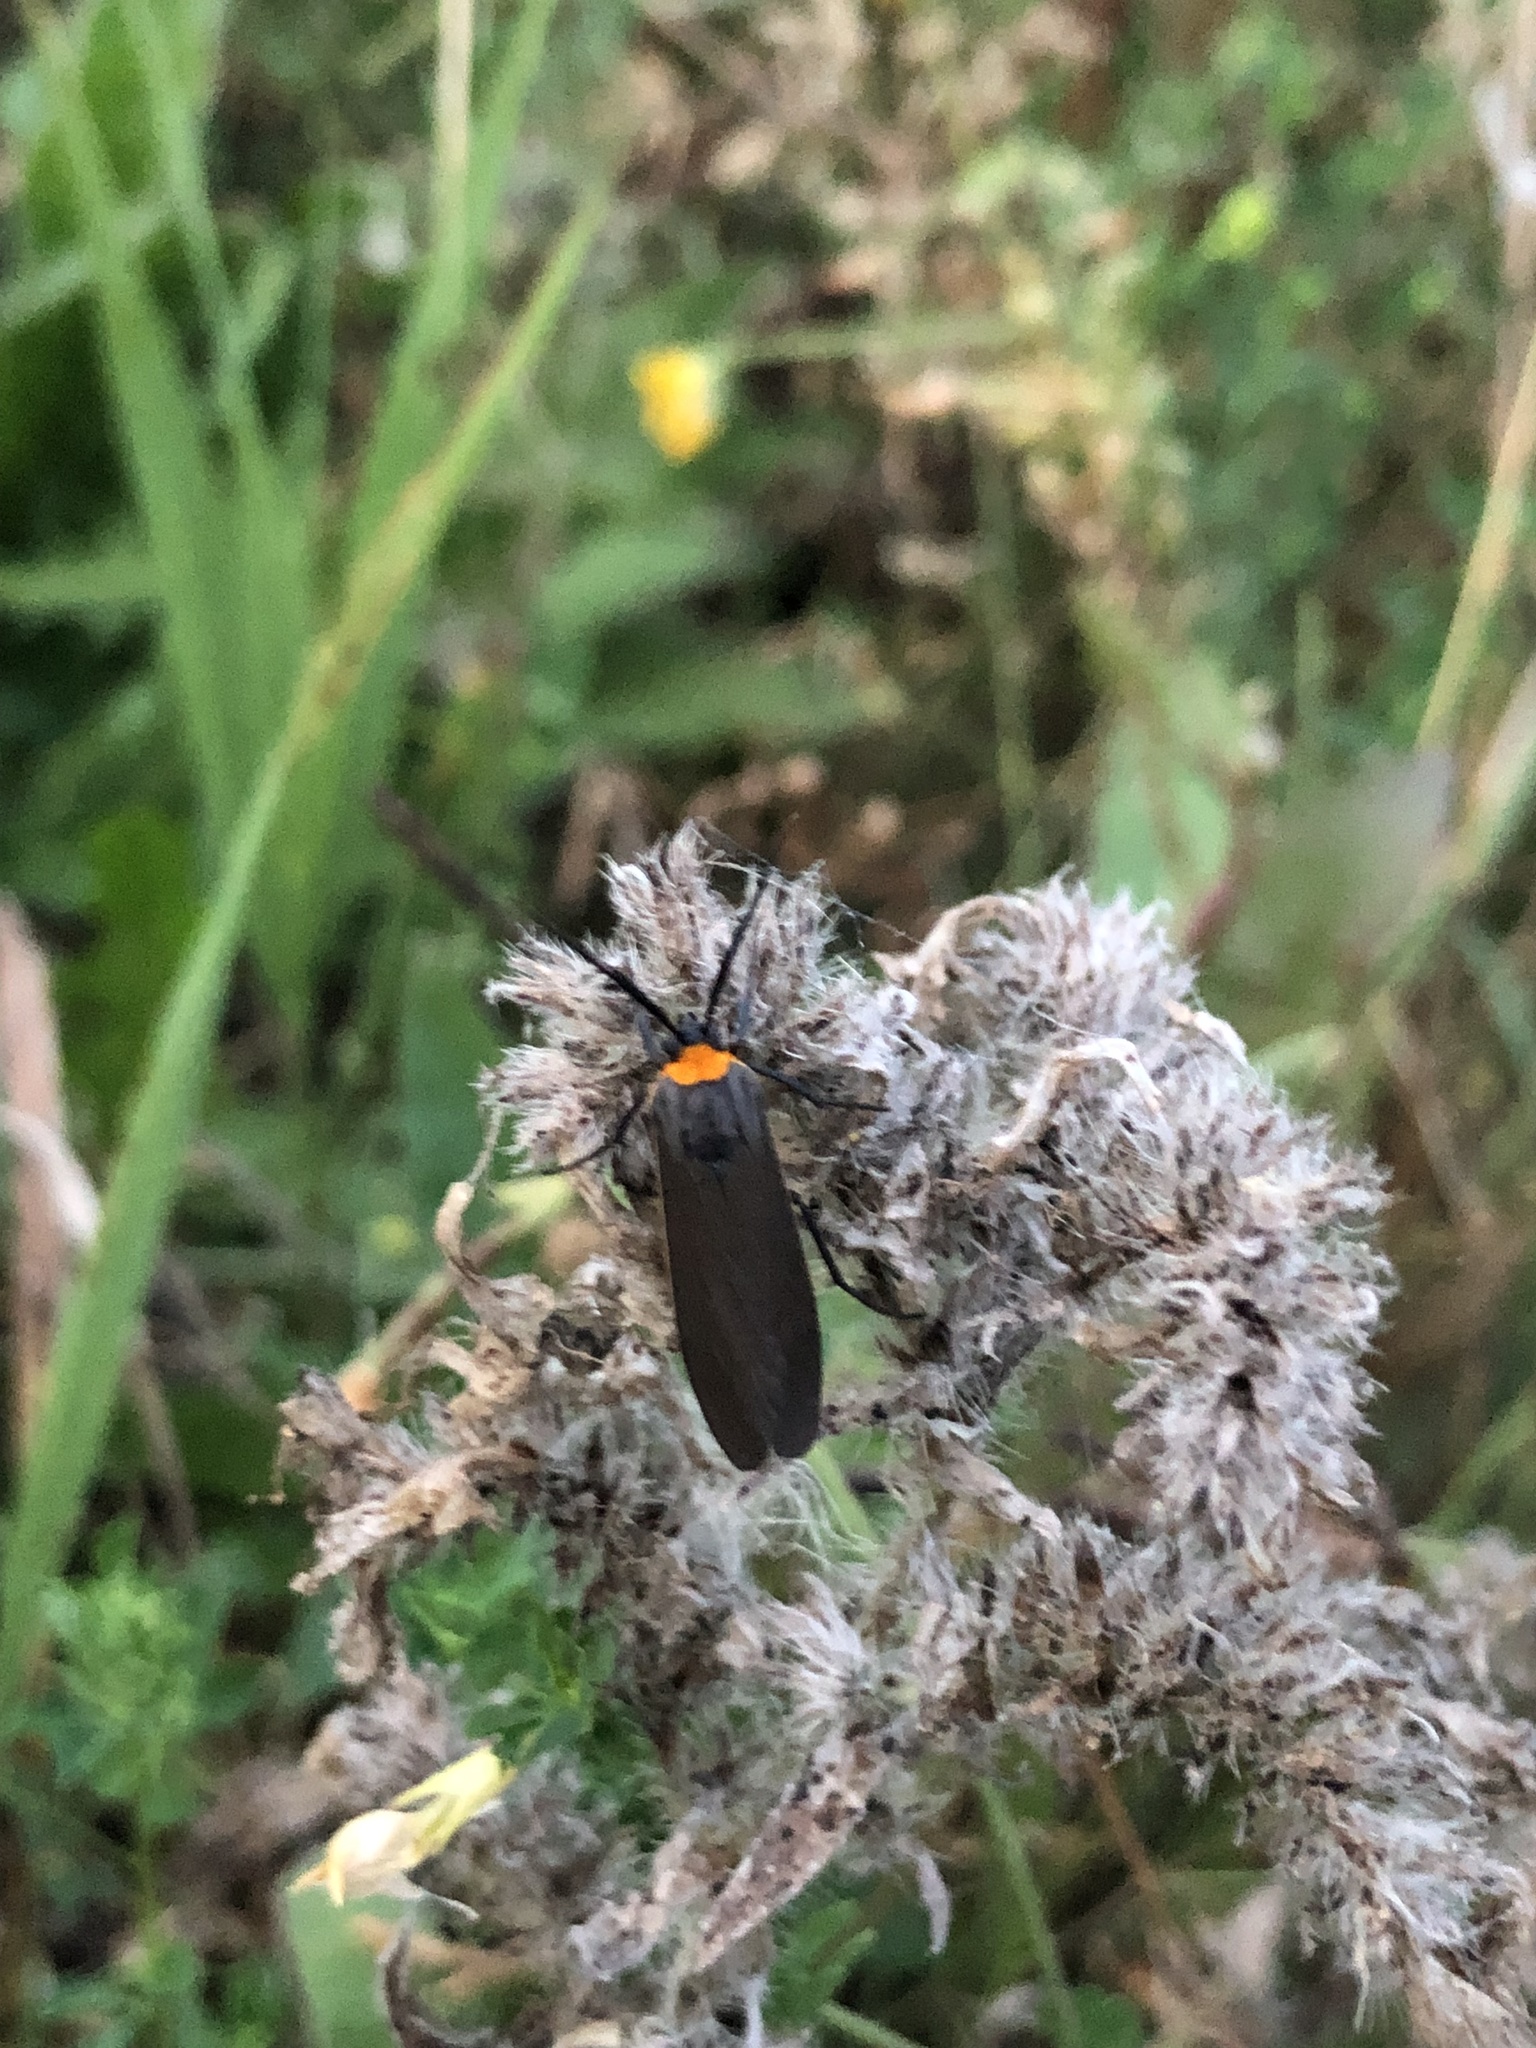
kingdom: Animalia
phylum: Arthropoda
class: Insecta
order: Lepidoptera
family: Erebidae
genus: Cisseps
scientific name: Cisseps fulvicollis
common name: Yellow-collared scape moth
